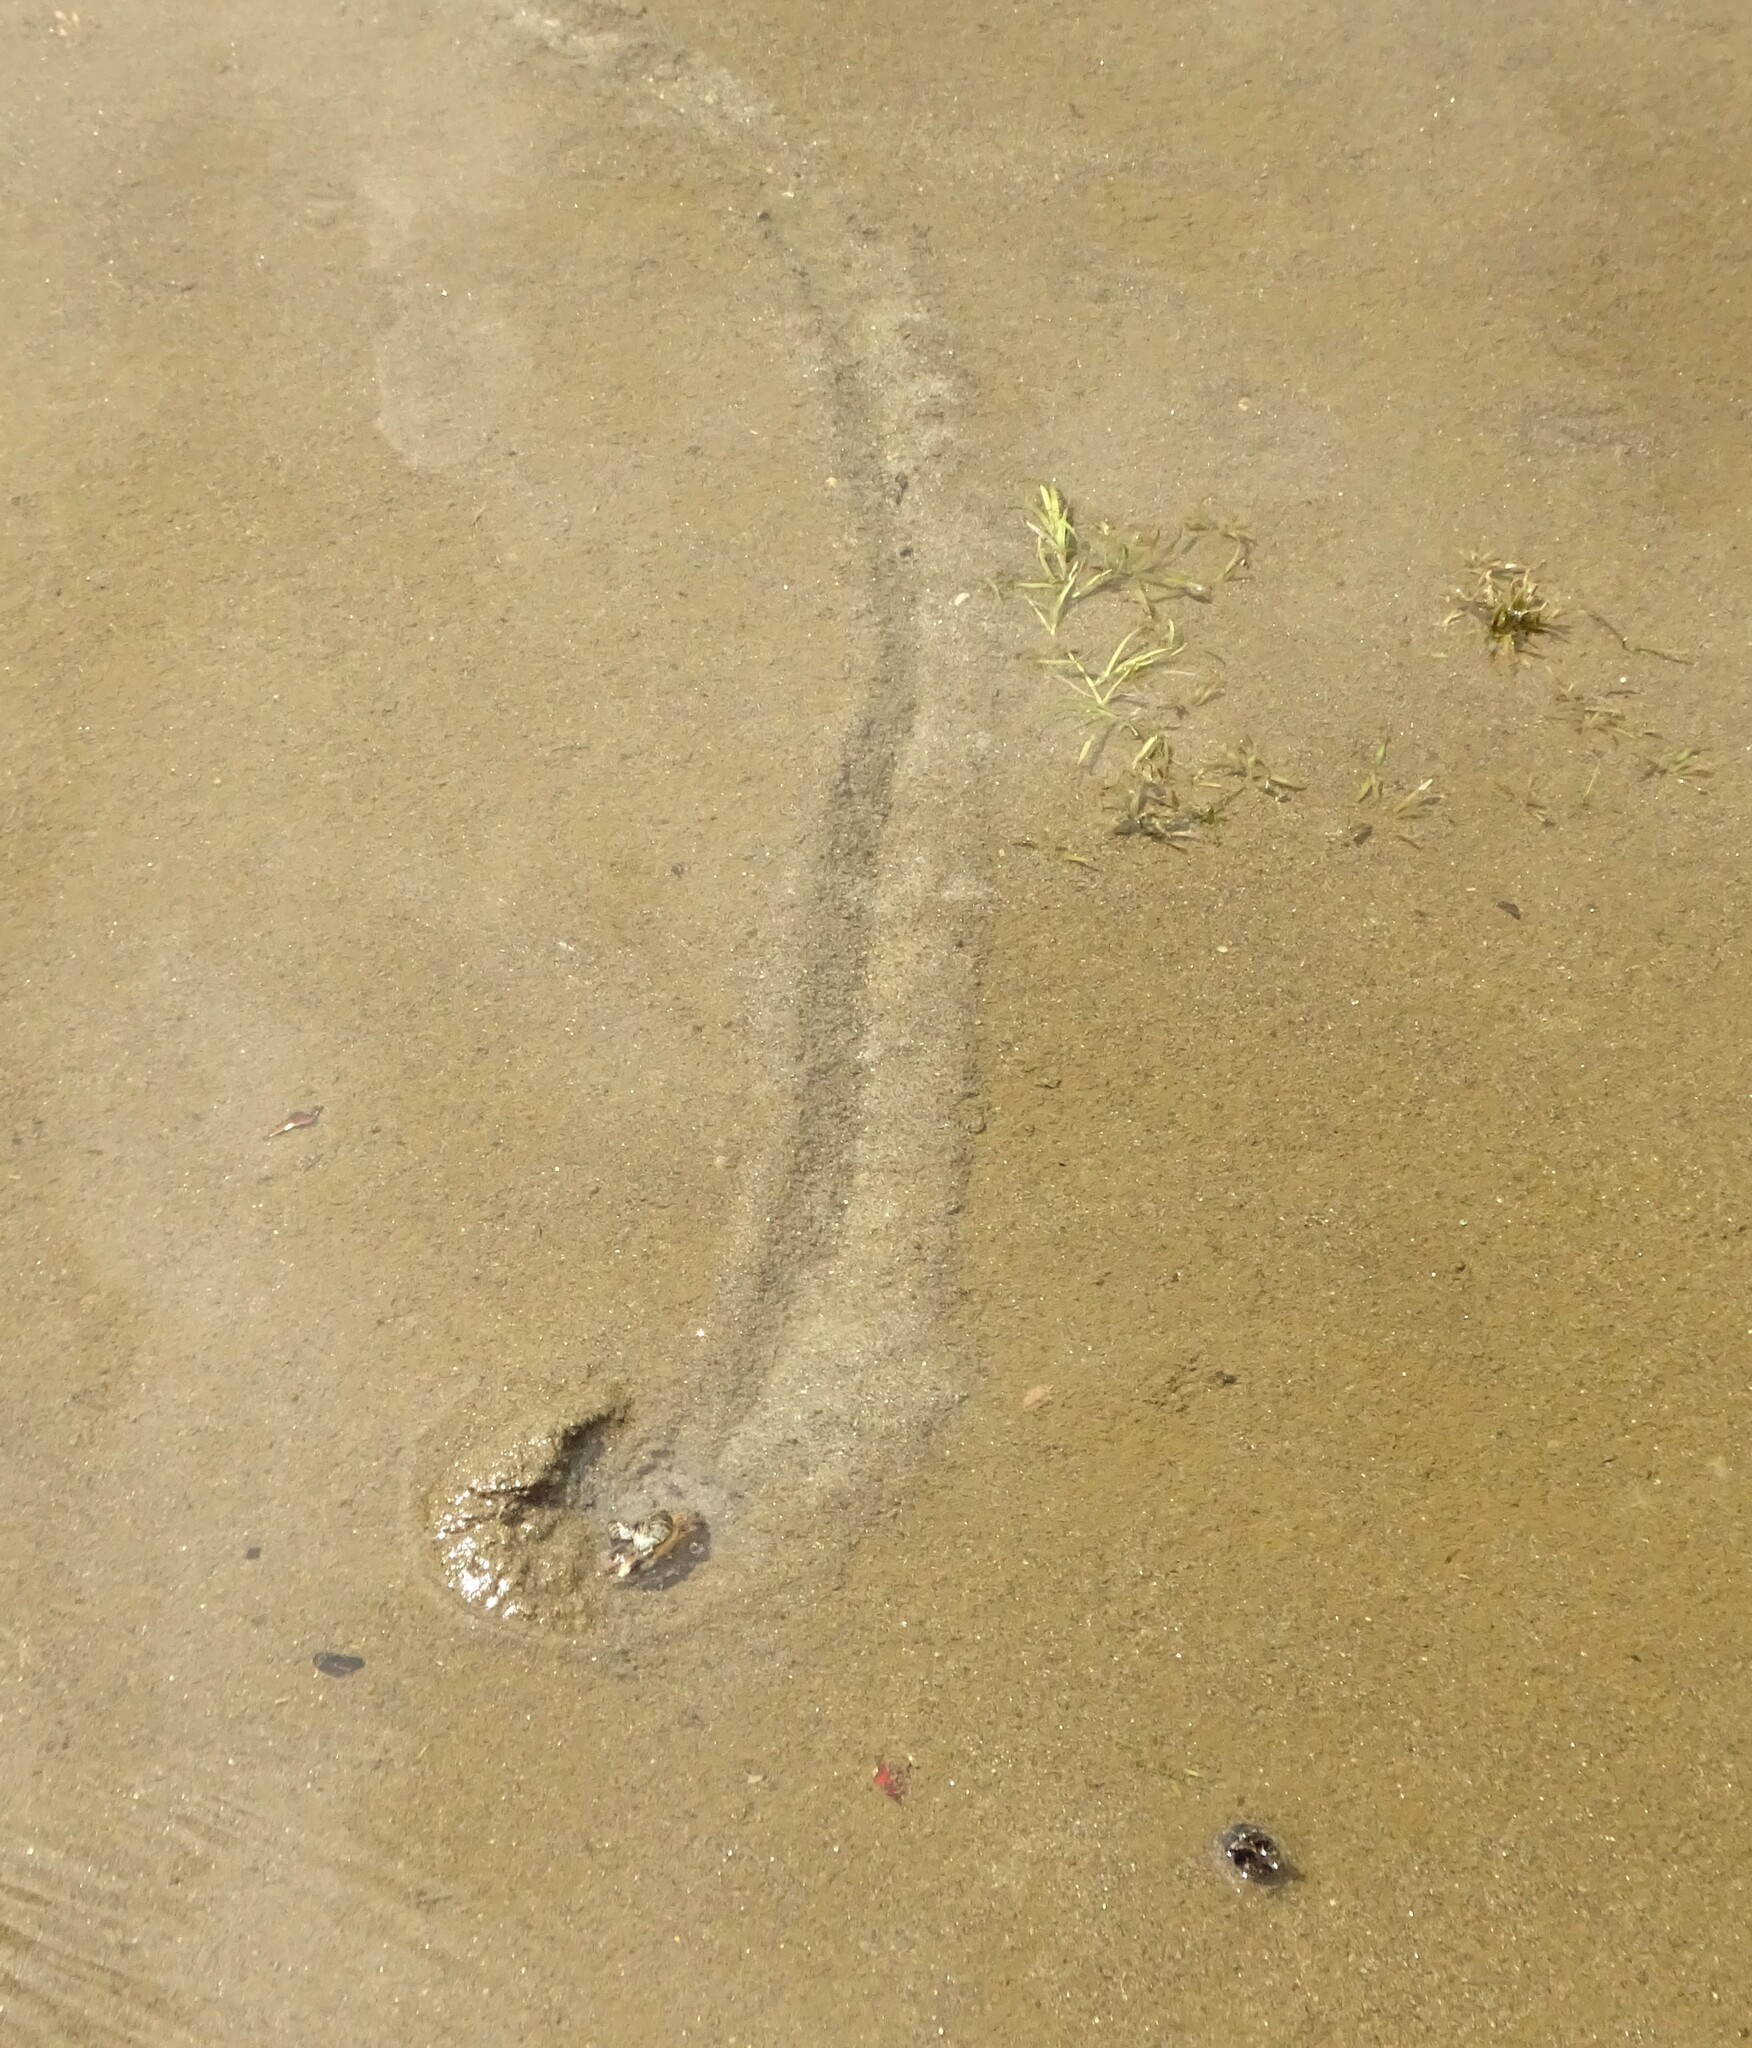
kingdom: Animalia
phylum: Mollusca
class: Bivalvia
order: Unionida
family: Unionidae
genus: Lampsilis
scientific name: Lampsilis radiata
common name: Eastern lampmussel
